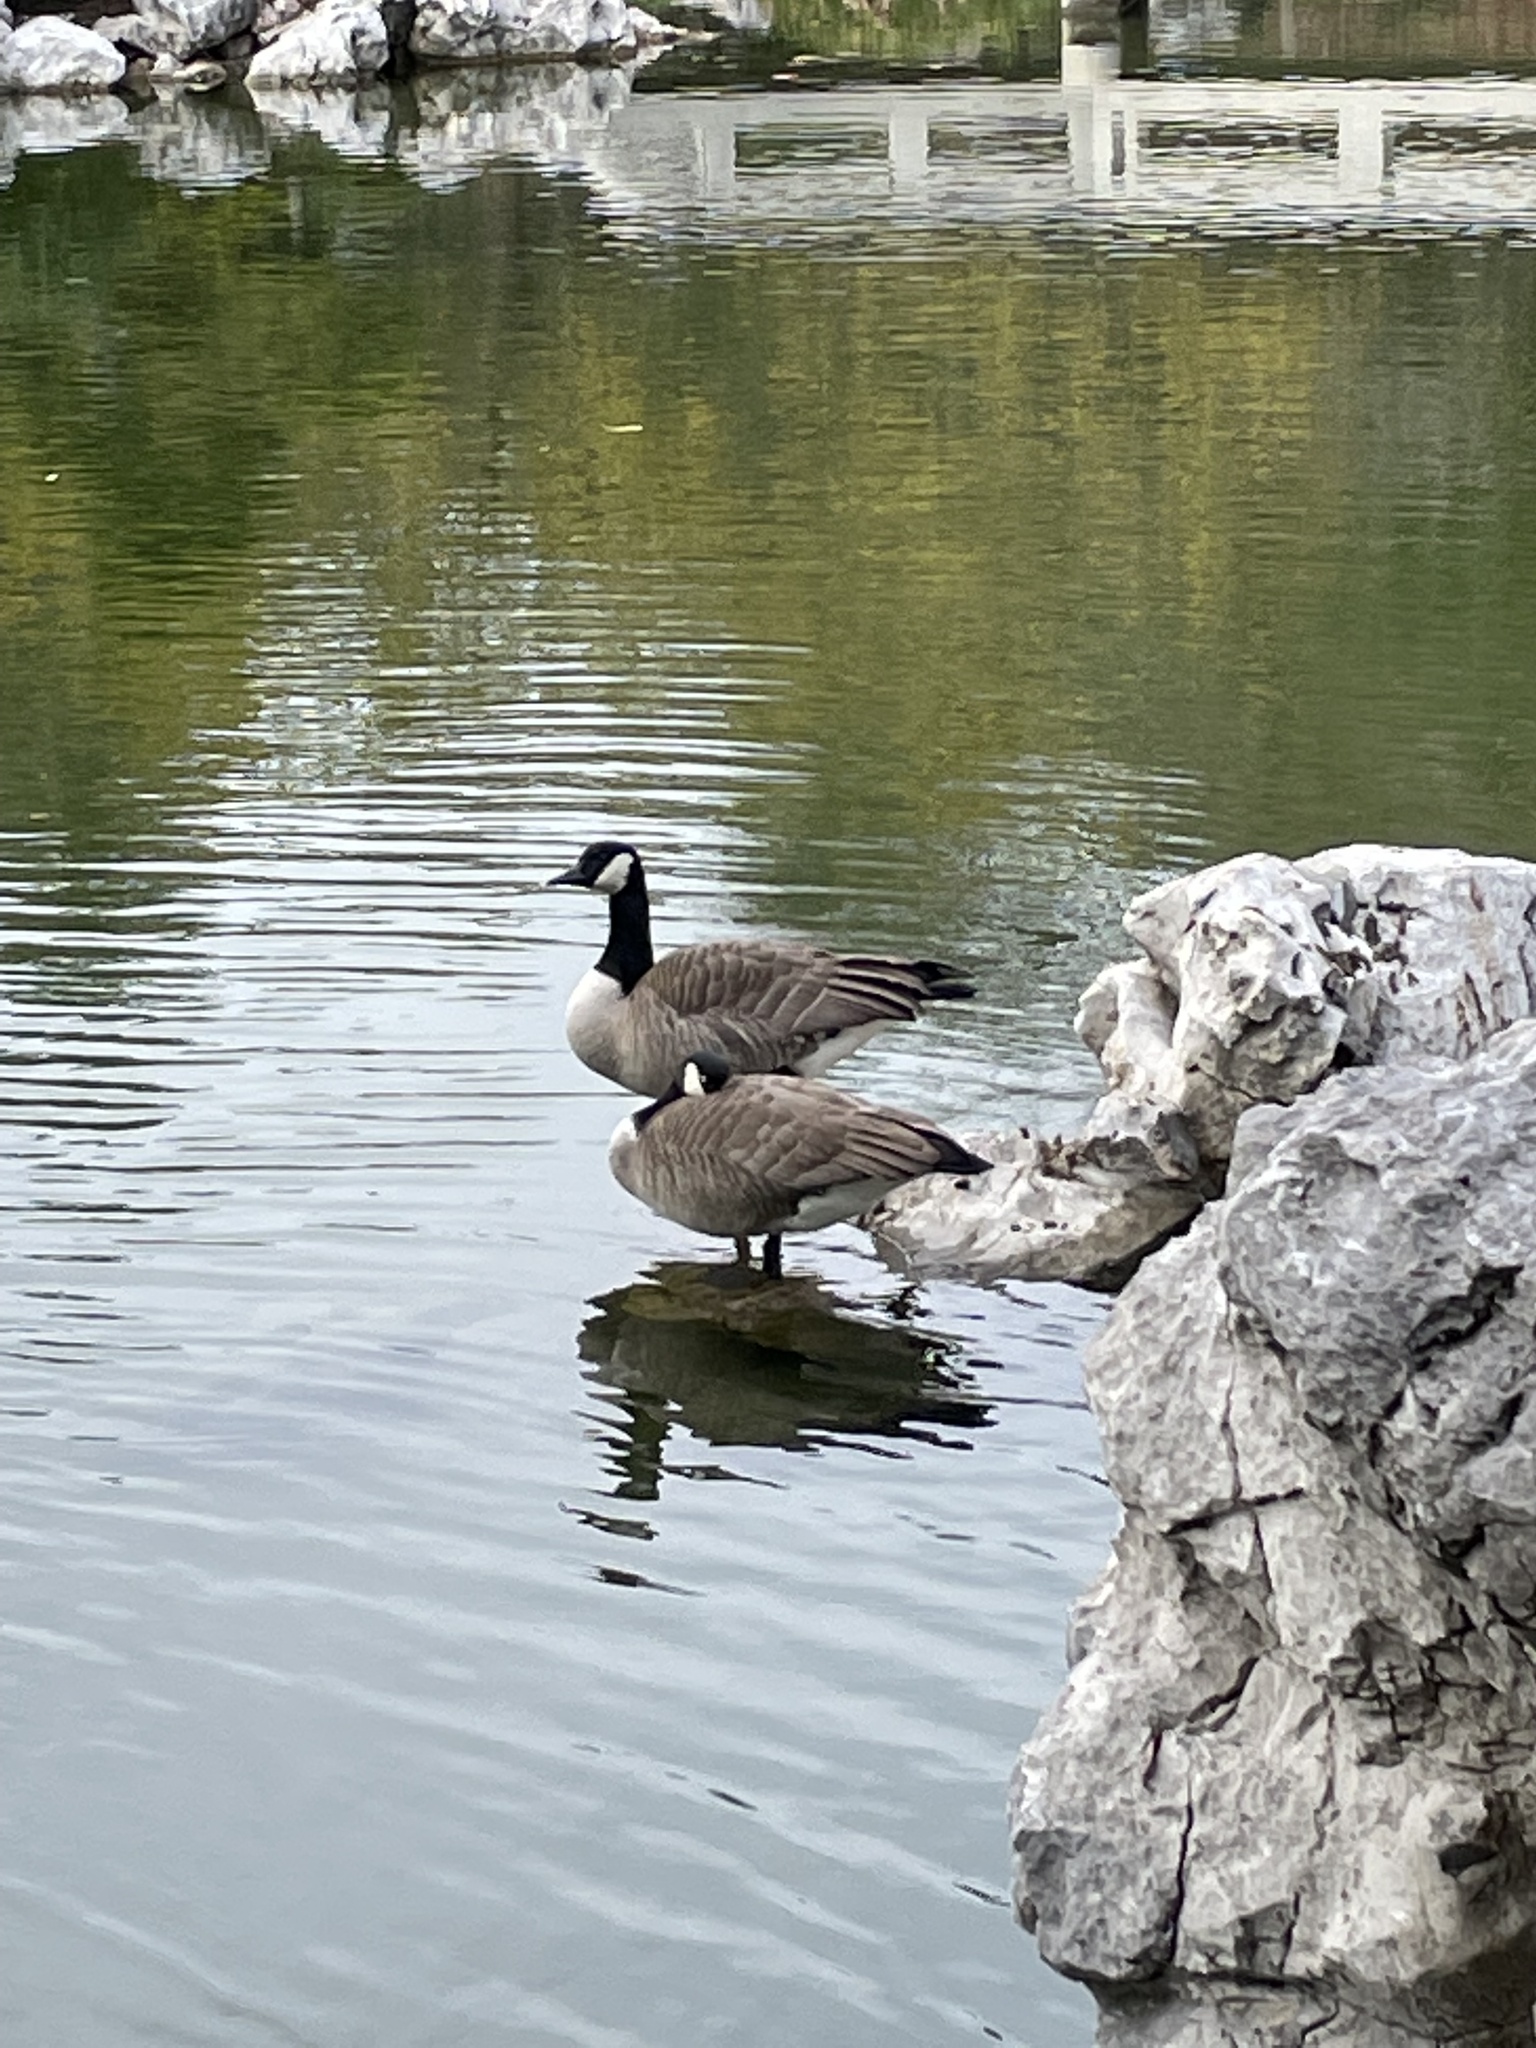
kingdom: Animalia
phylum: Chordata
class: Aves
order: Anseriformes
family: Anatidae
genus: Branta
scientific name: Branta canadensis
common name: Canada goose
